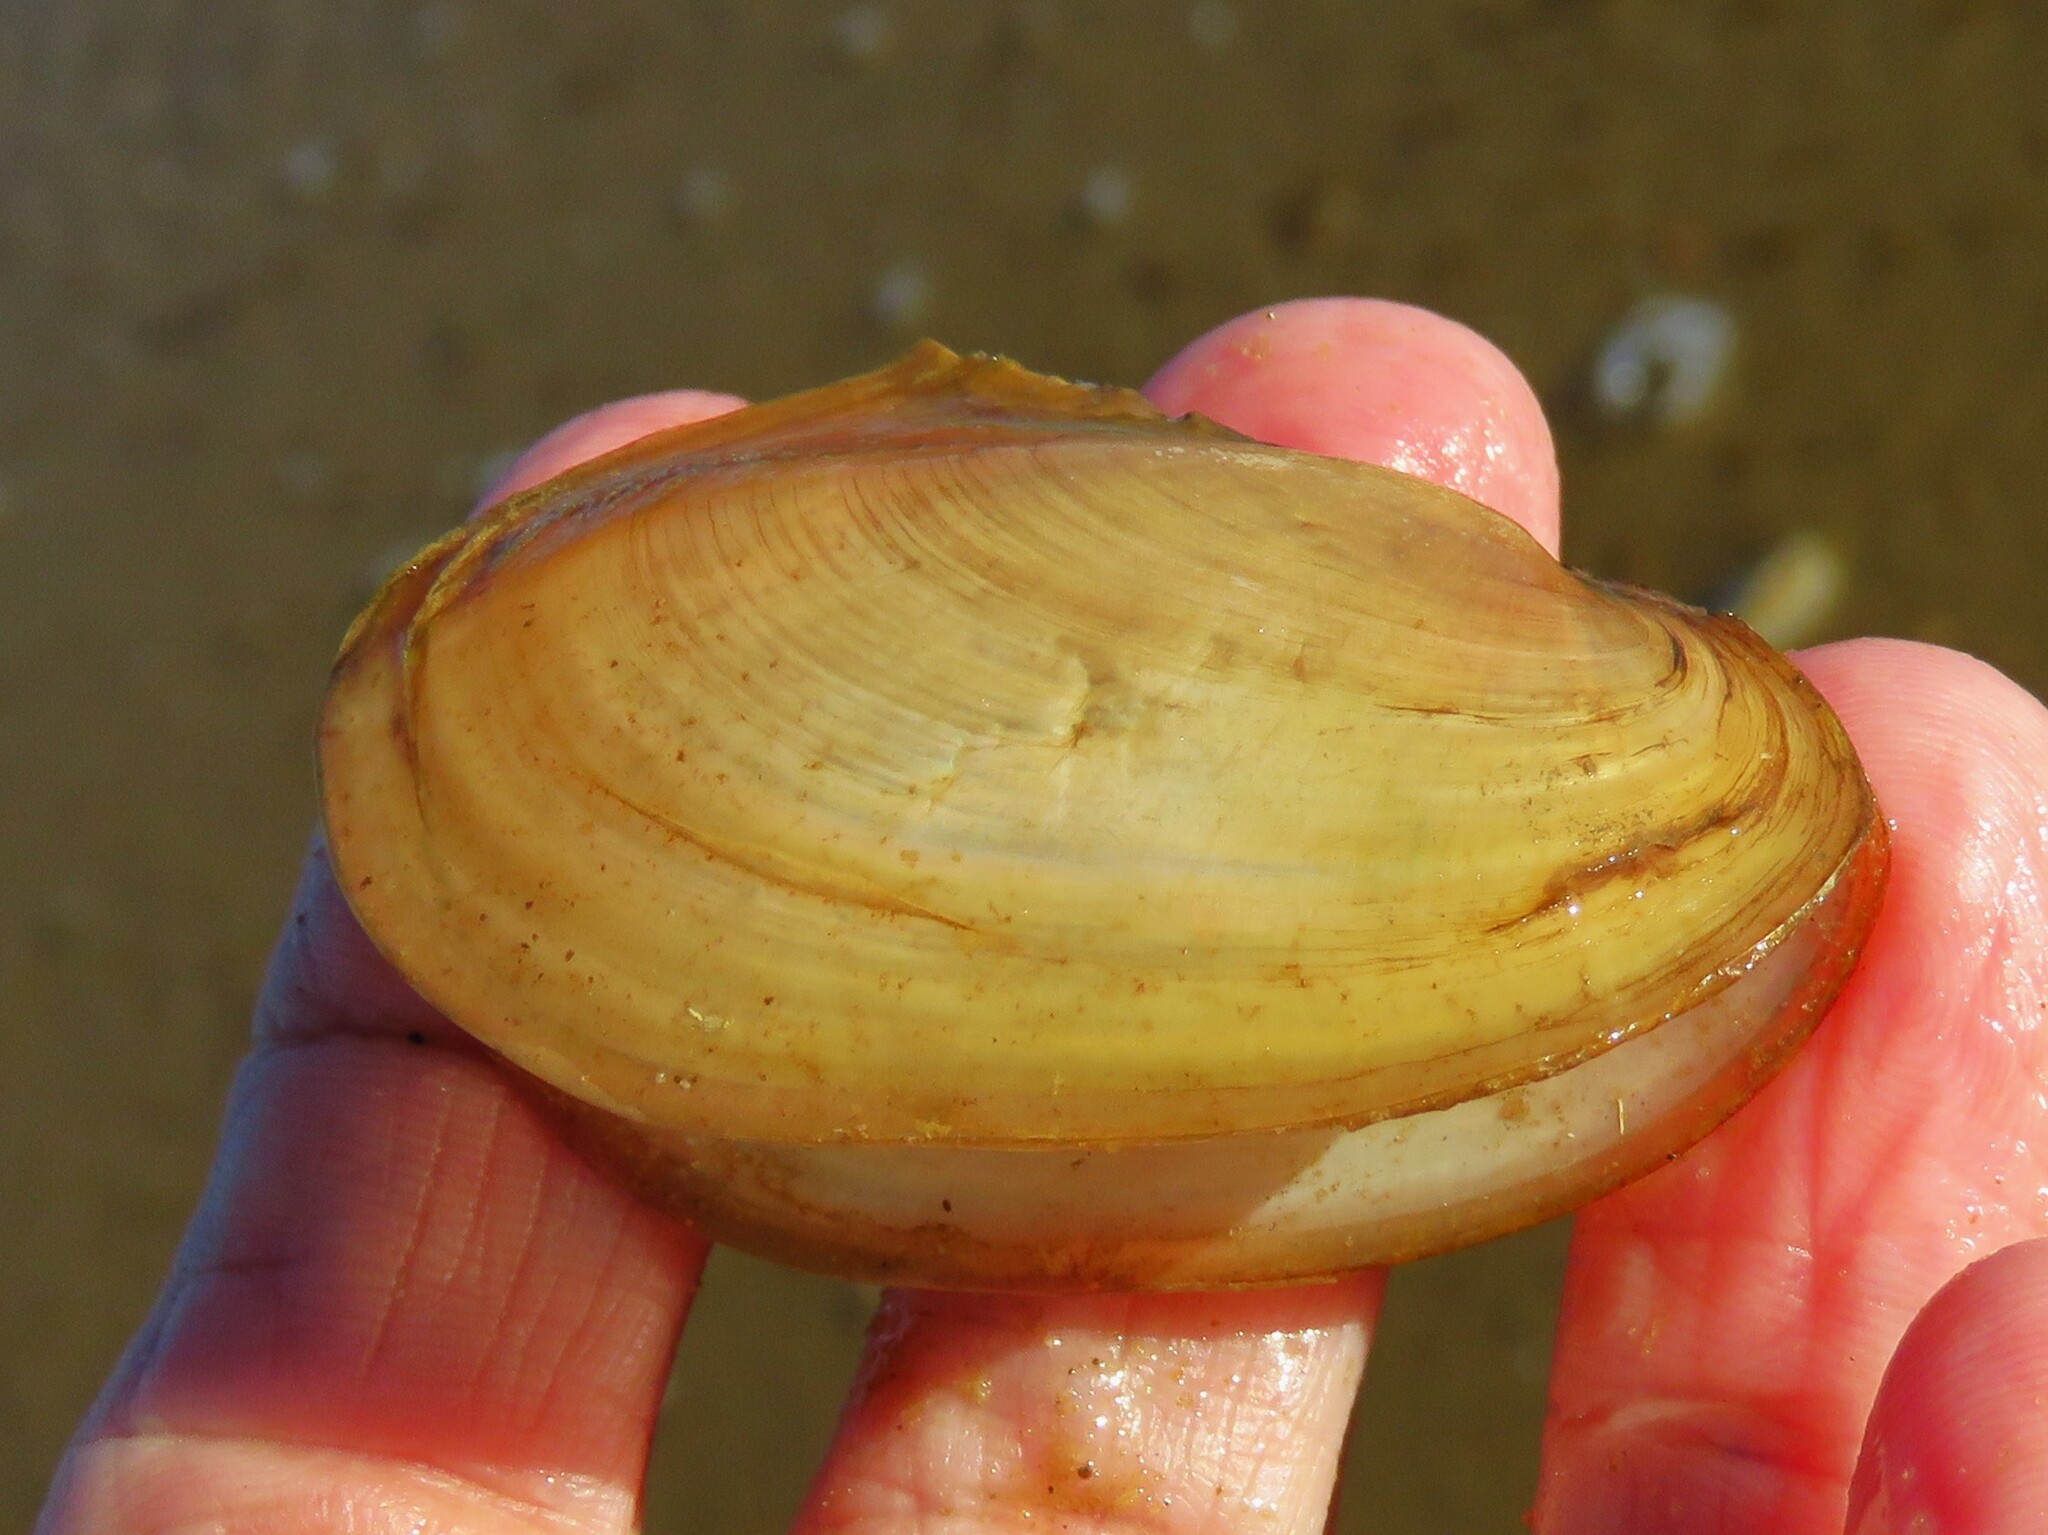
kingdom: Animalia
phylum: Mollusca
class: Bivalvia
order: Unionida
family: Unionidae
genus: Potamilus
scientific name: Potamilus fragilis
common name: Fragile papershell
